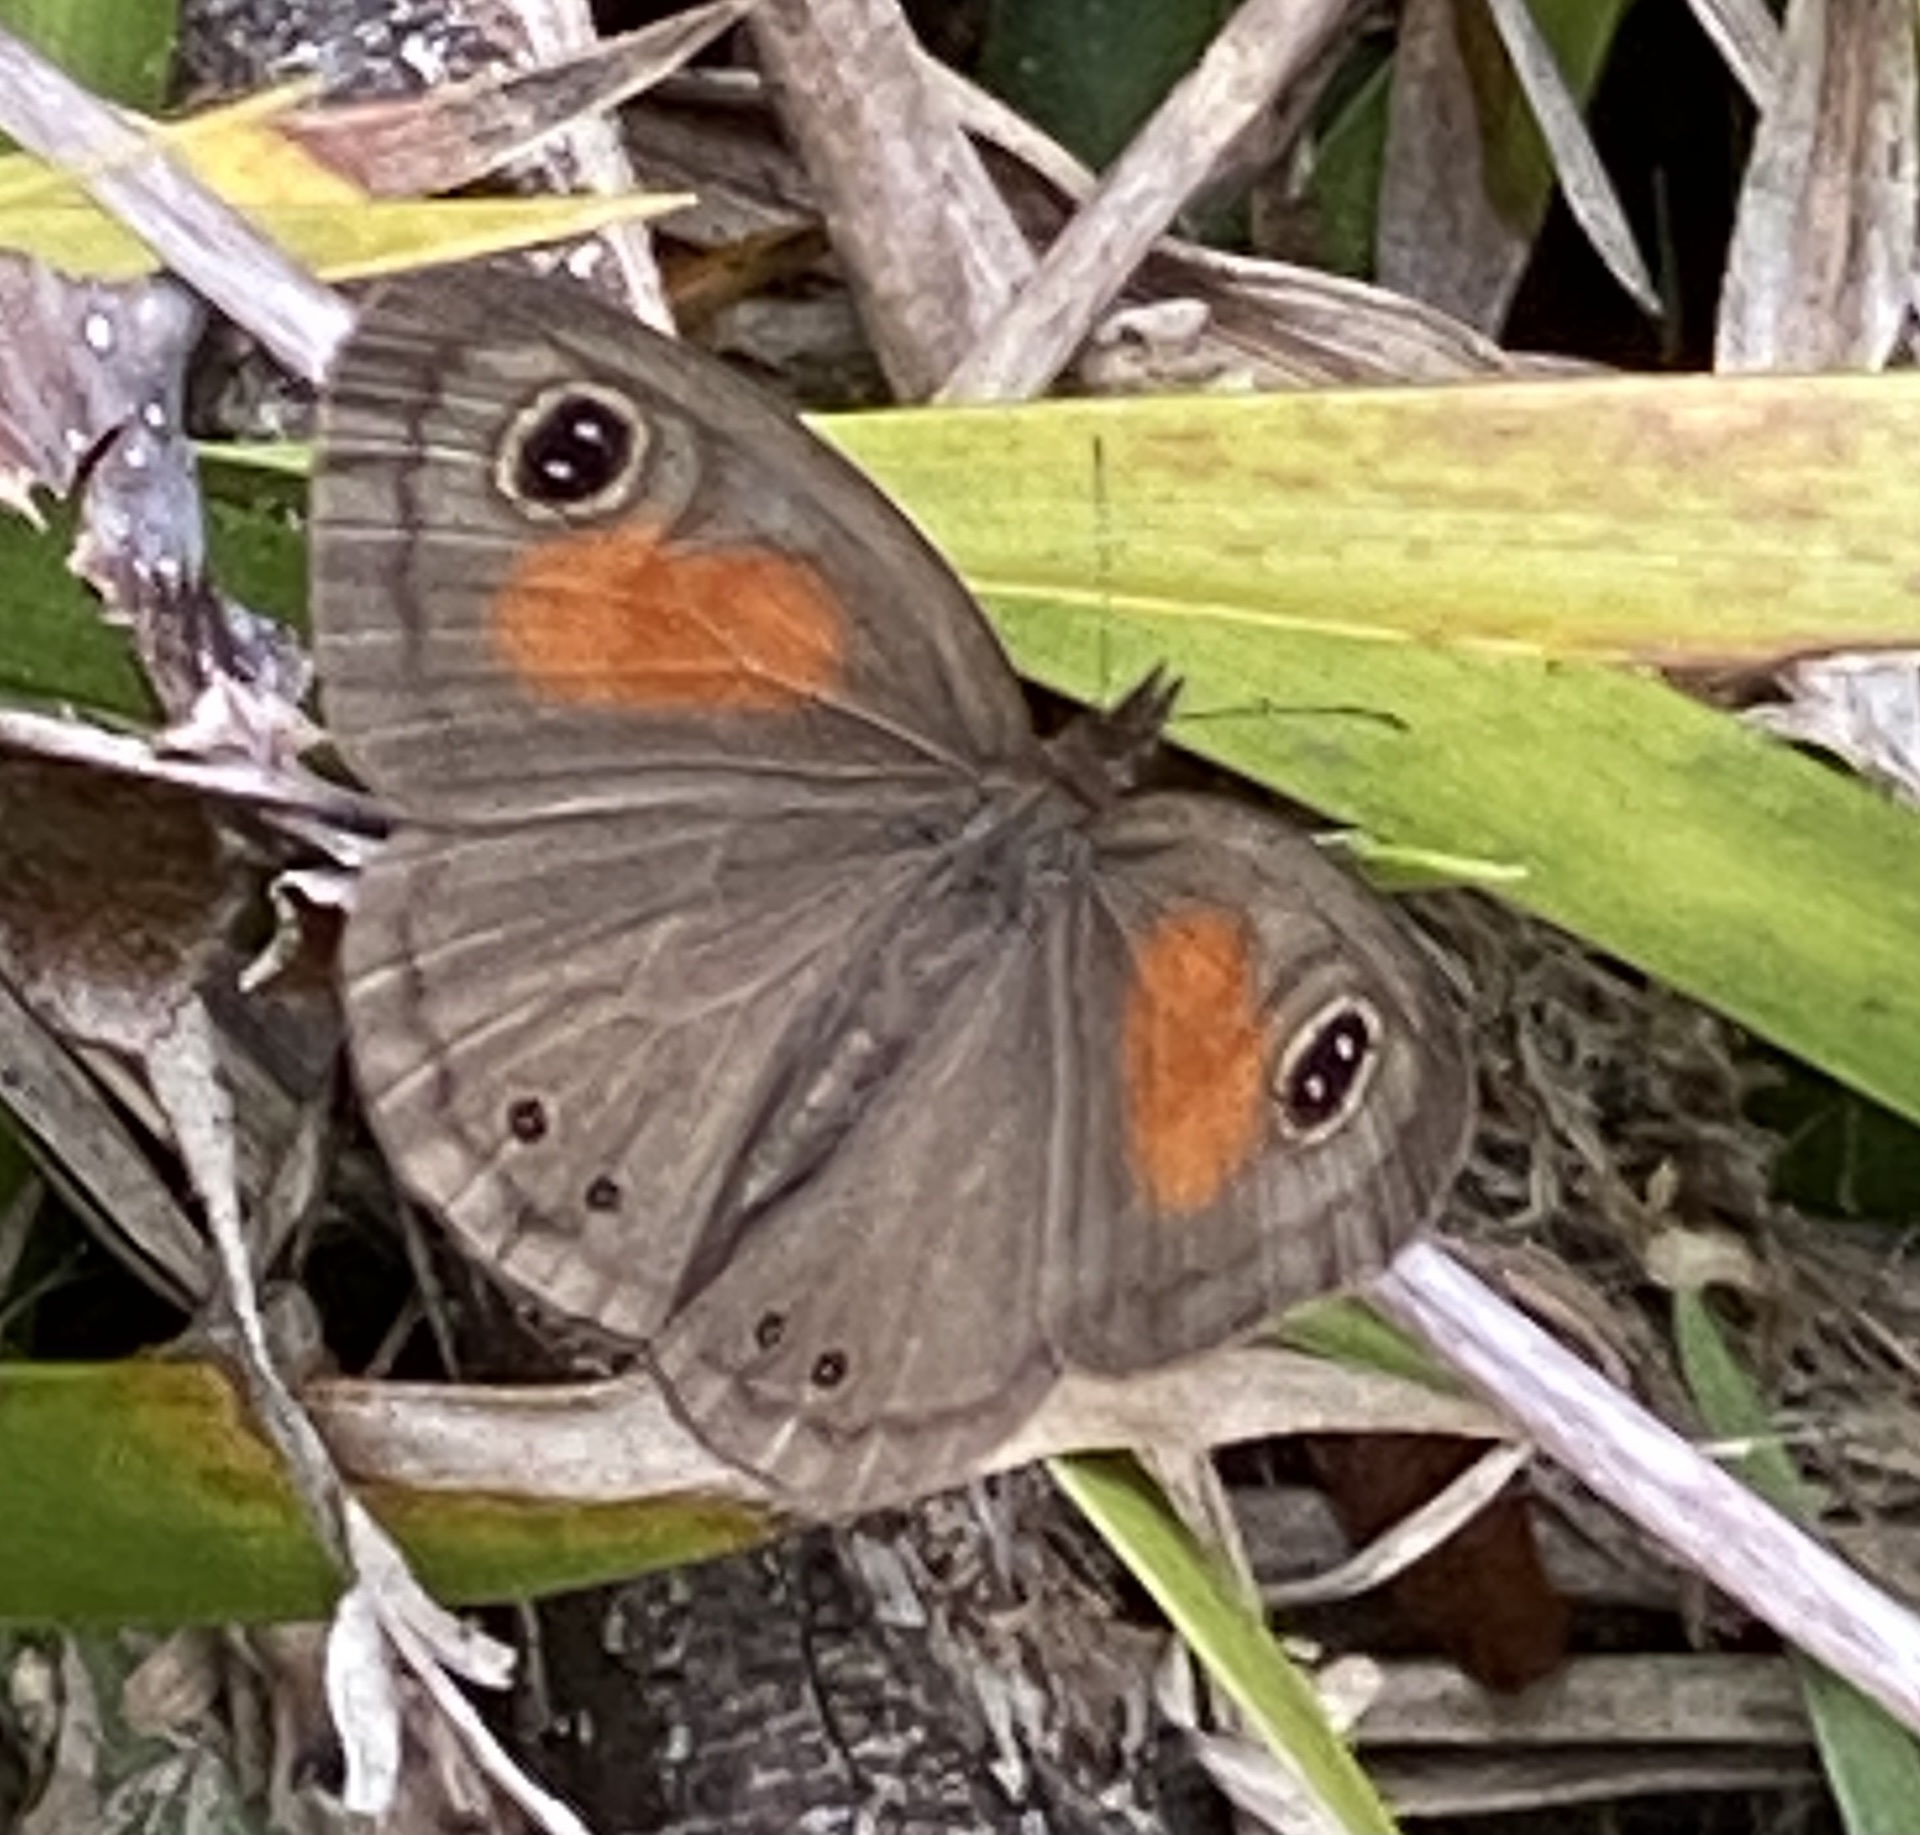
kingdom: Animalia
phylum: Arthropoda
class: Insecta
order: Lepidoptera
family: Nymphalidae
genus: Cassionympha
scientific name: Cassionympha cassius
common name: Rainforest brown
